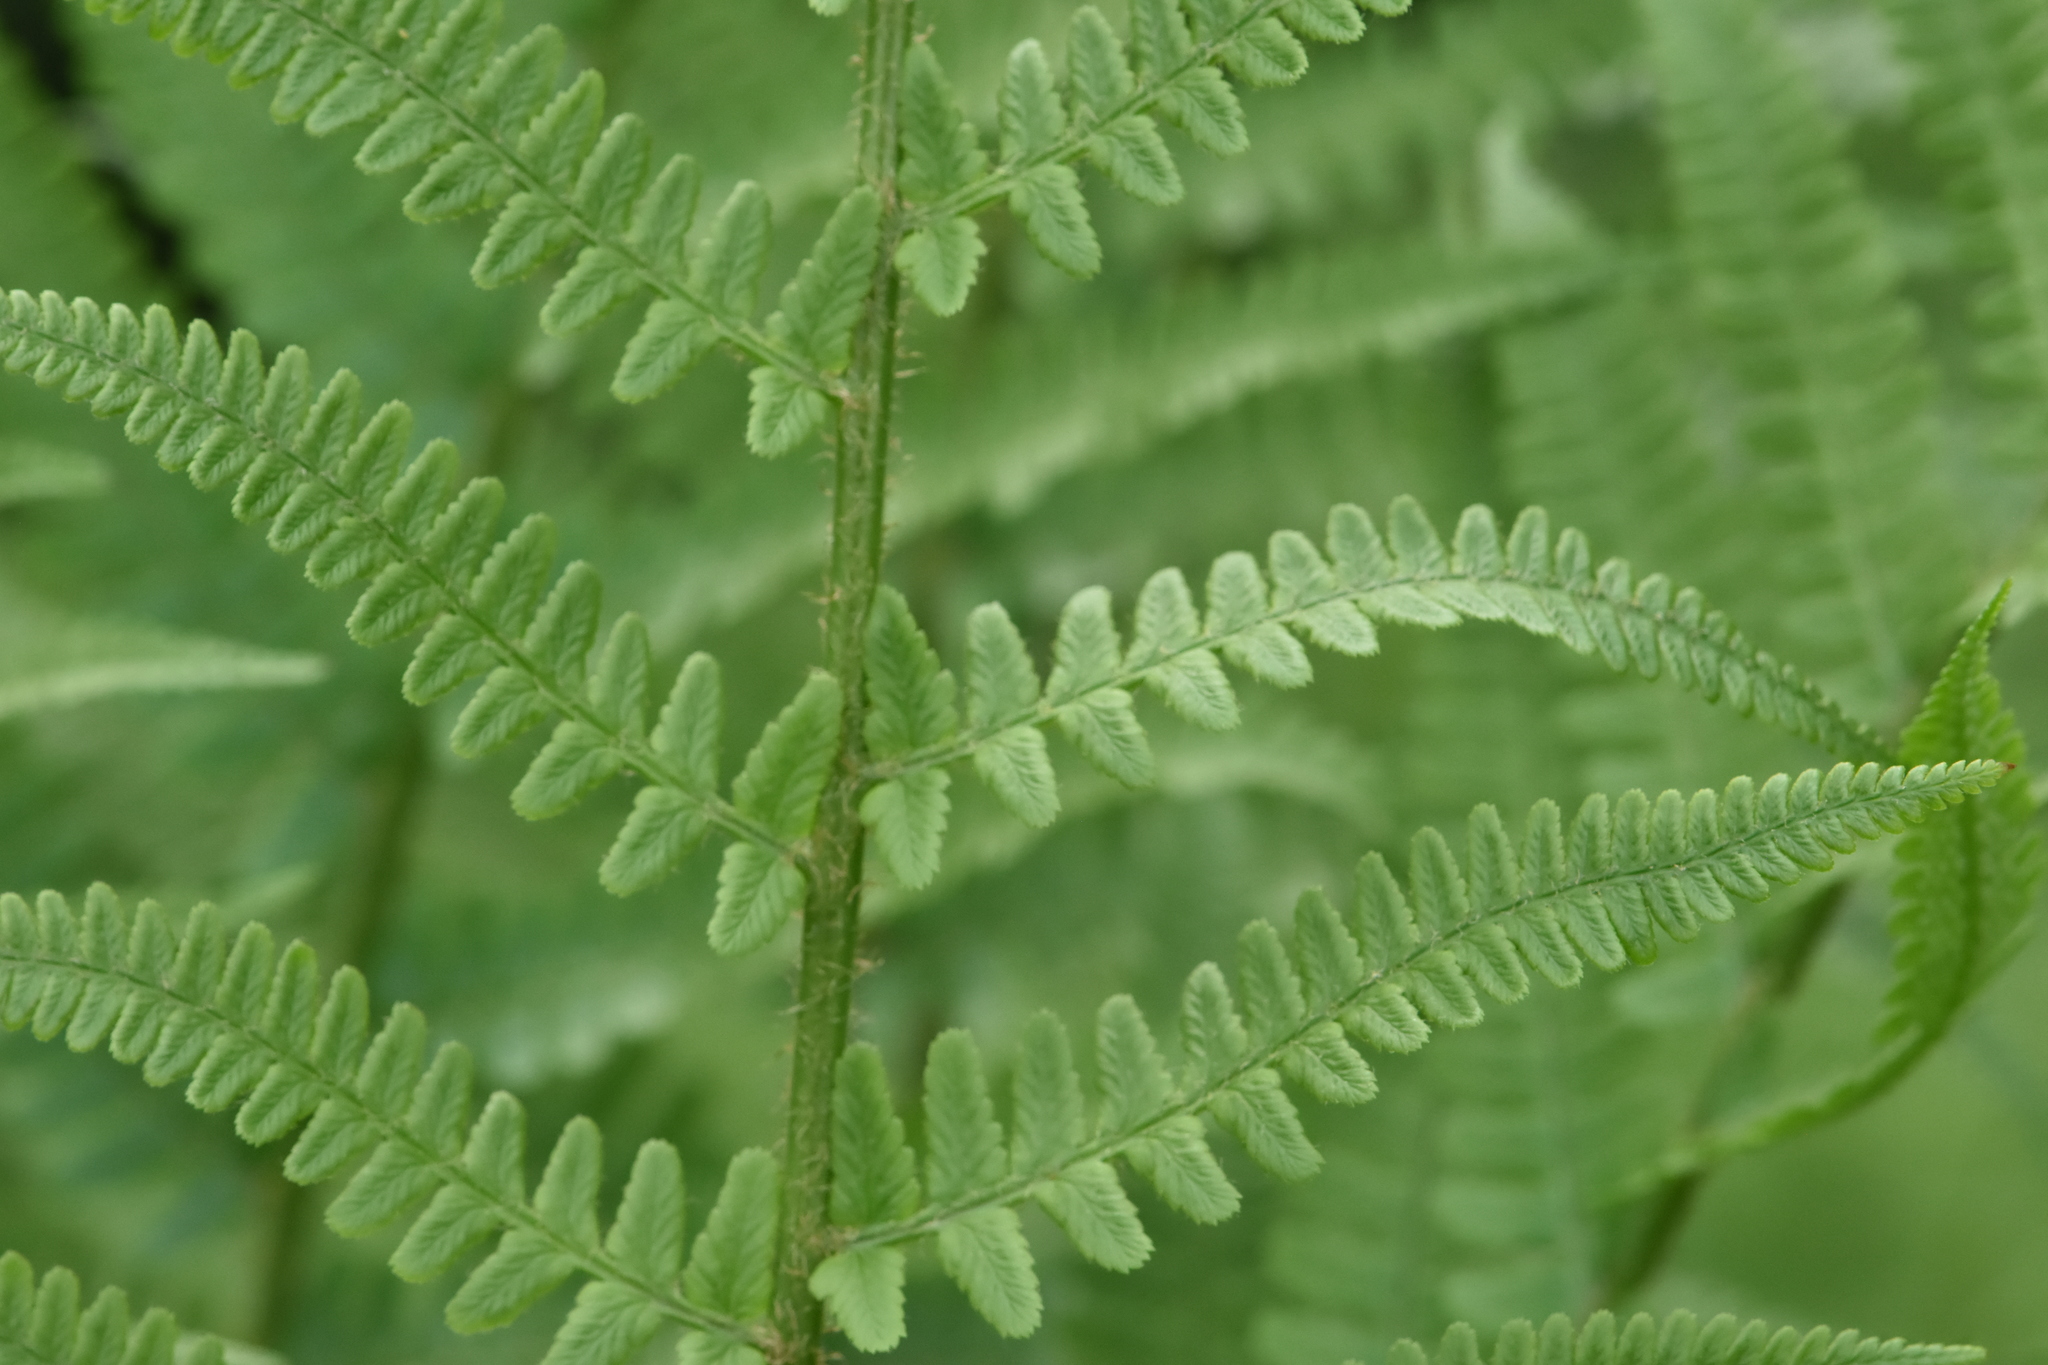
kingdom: Plantae
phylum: Tracheophyta
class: Polypodiopsida
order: Polypodiales
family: Dryopteridaceae
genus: Dryopteris
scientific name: Dryopteris filix-mas
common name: Male fern
